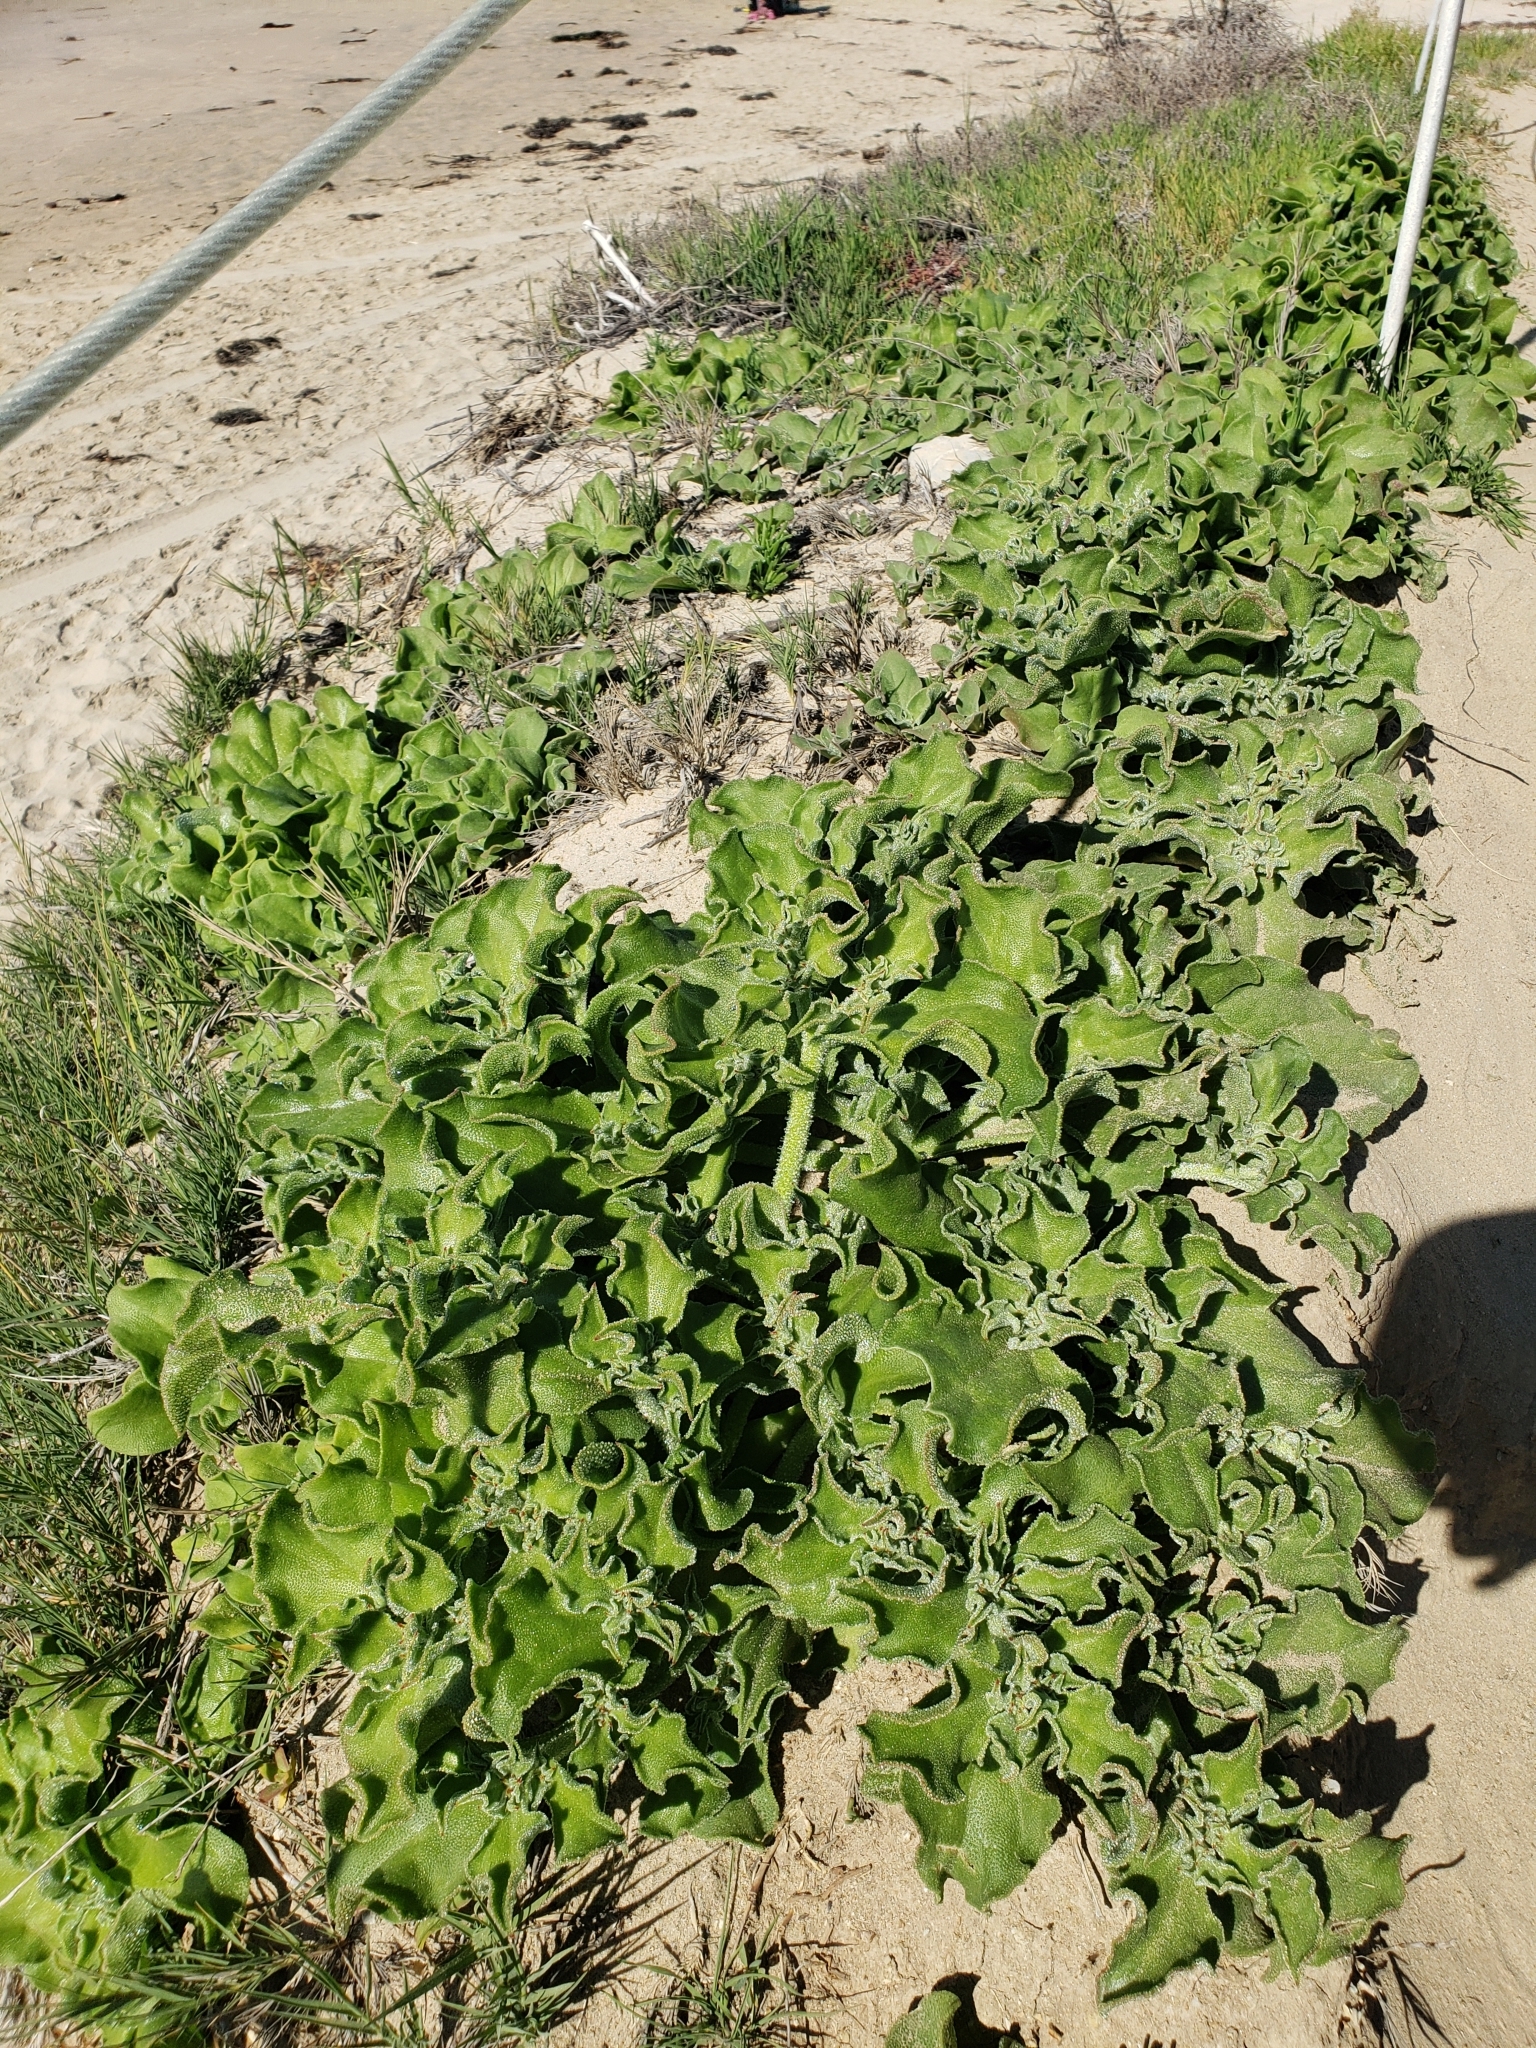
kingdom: Plantae
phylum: Tracheophyta
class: Magnoliopsida
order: Caryophyllales
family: Aizoaceae
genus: Mesembryanthemum
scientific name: Mesembryanthemum crystallinum
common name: Common iceplant
